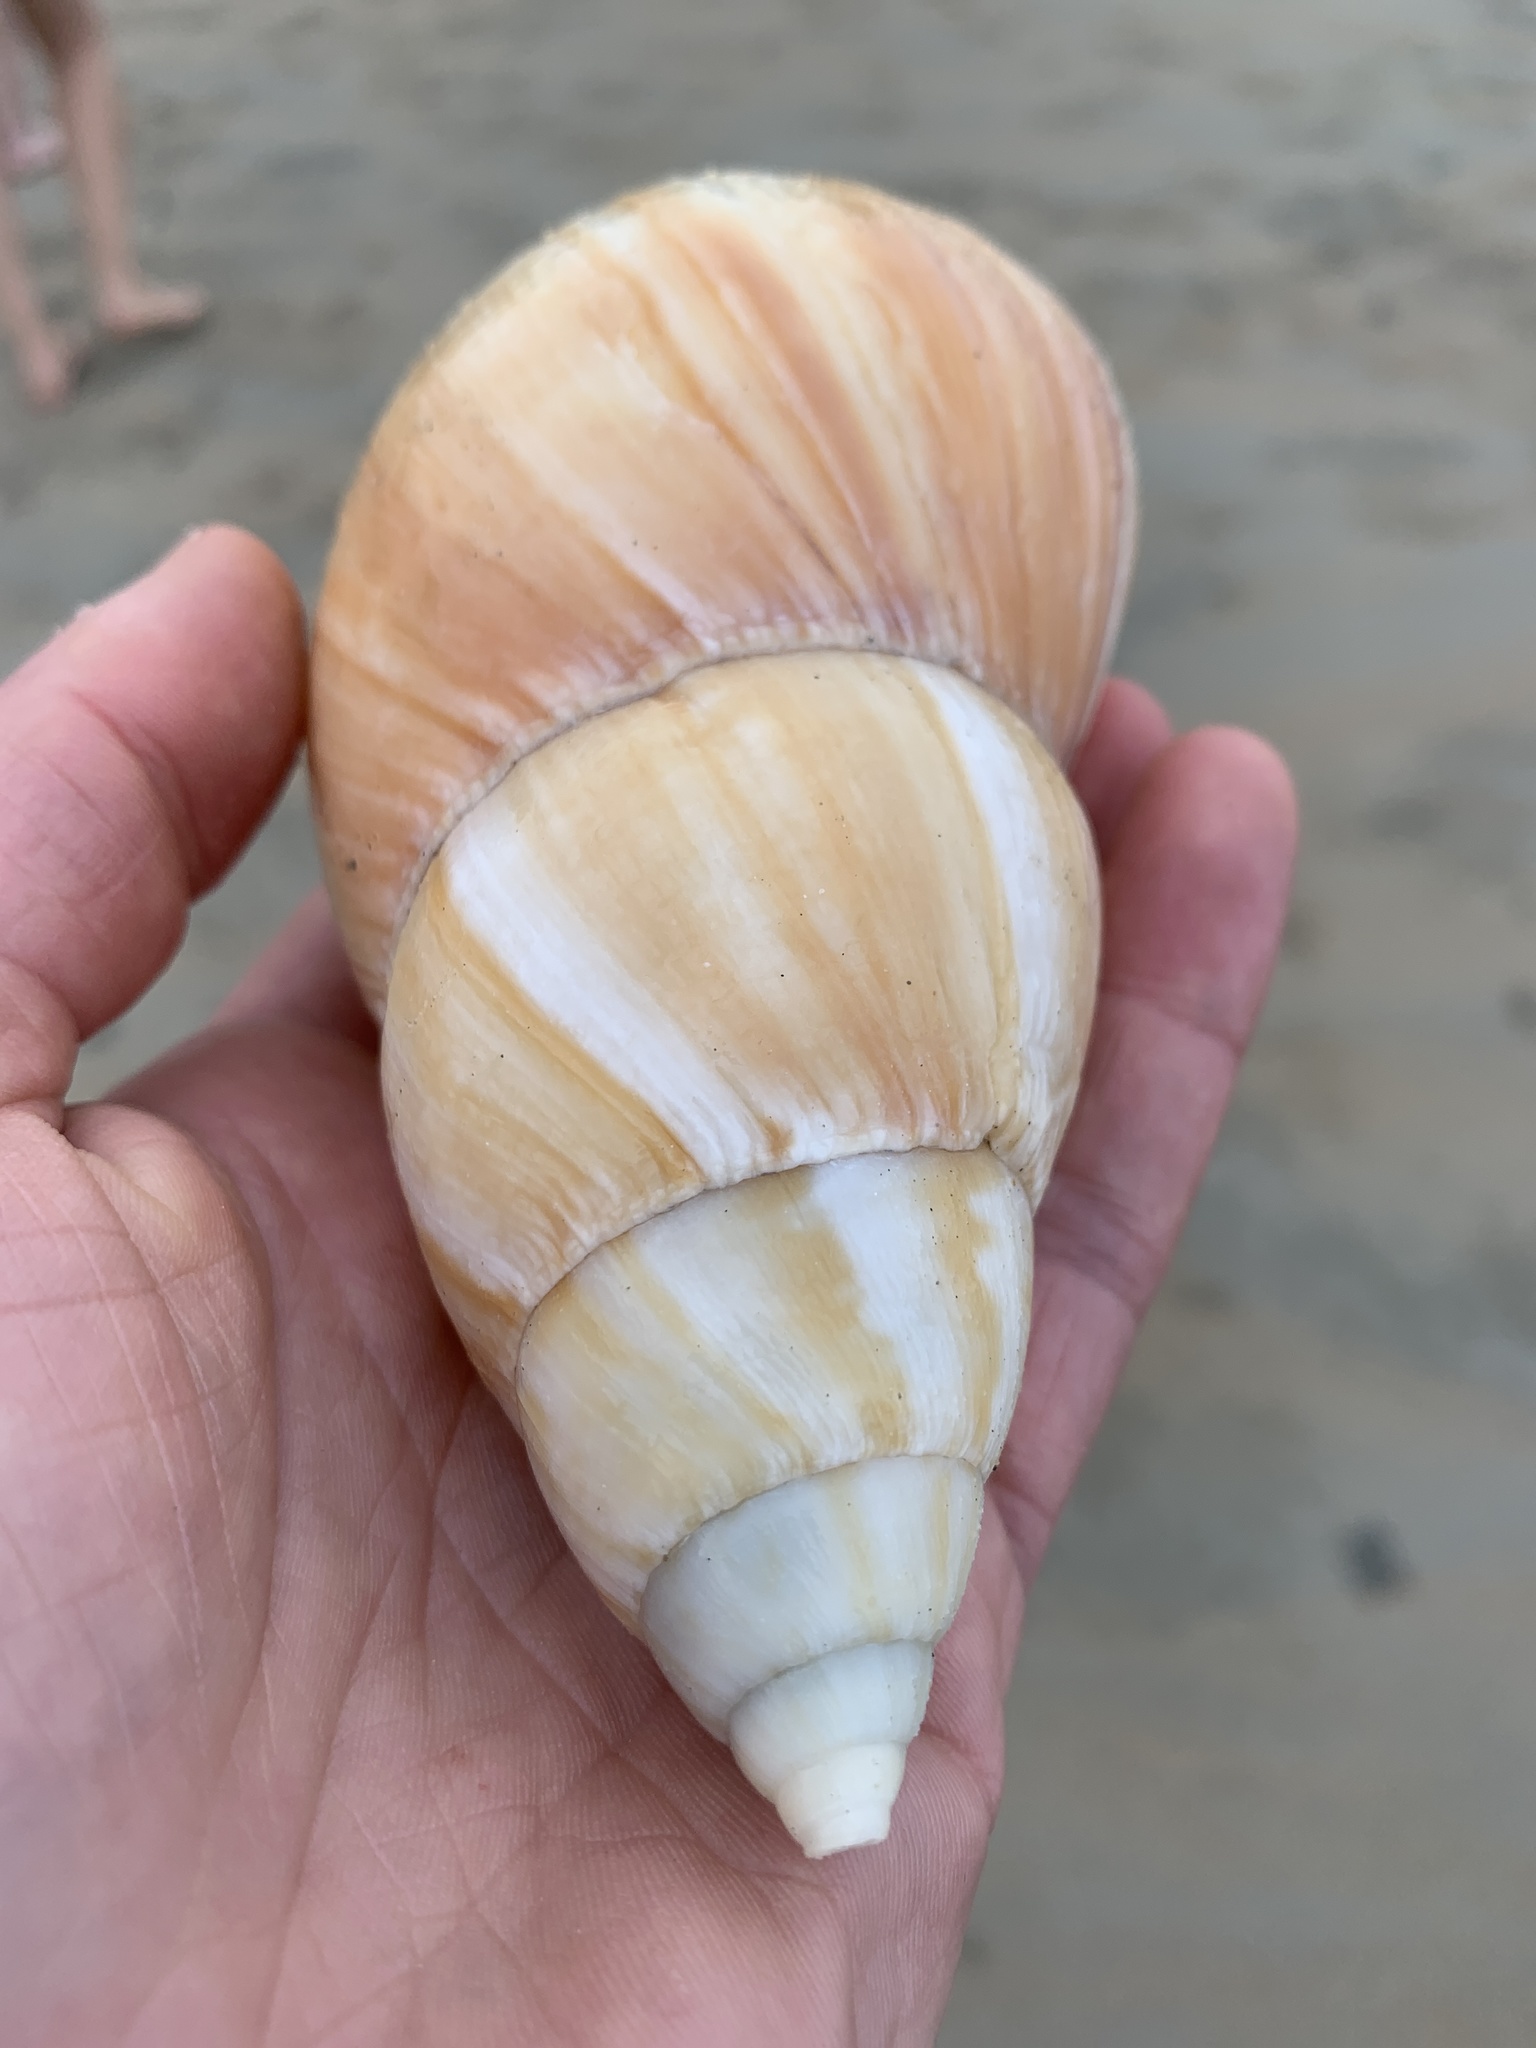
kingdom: Animalia
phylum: Mollusca
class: Gastropoda
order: Stylommatophora
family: Achatinidae
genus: Lissachatina
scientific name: Lissachatina fulica
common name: Giant african snail
